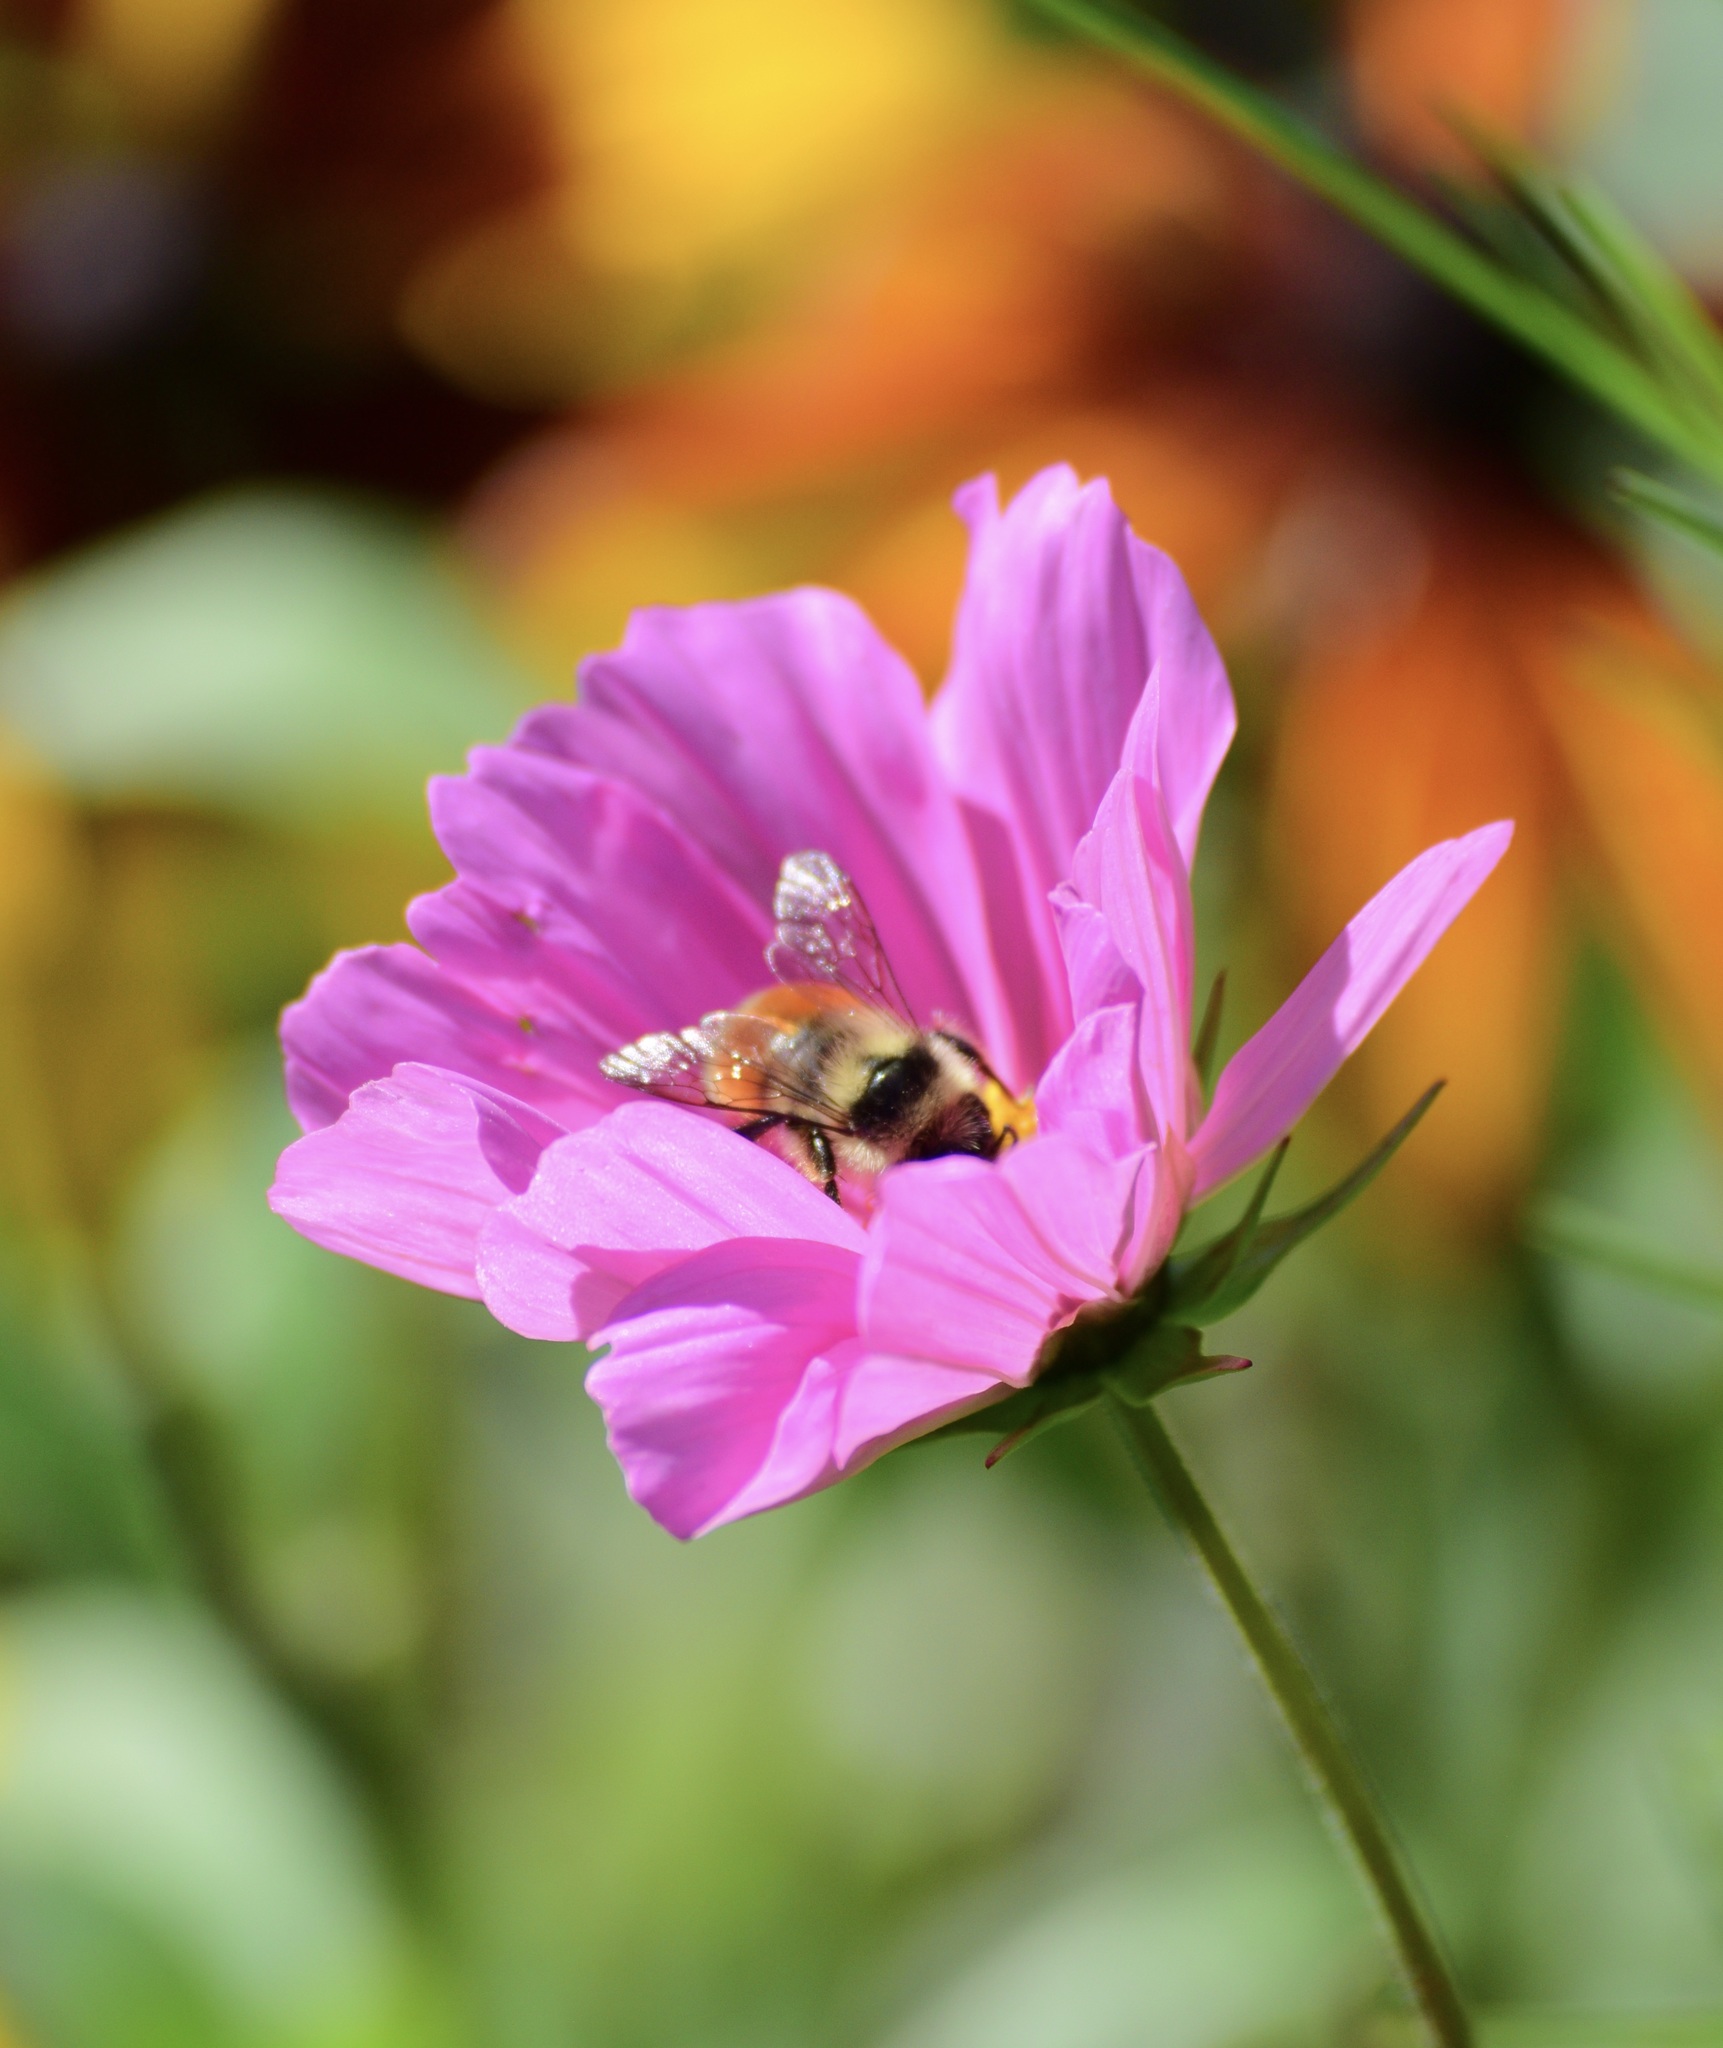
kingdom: Animalia
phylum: Arthropoda
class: Insecta
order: Hymenoptera
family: Apidae
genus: Bombus
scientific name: Bombus ternarius
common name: Tri-colored bumble bee
